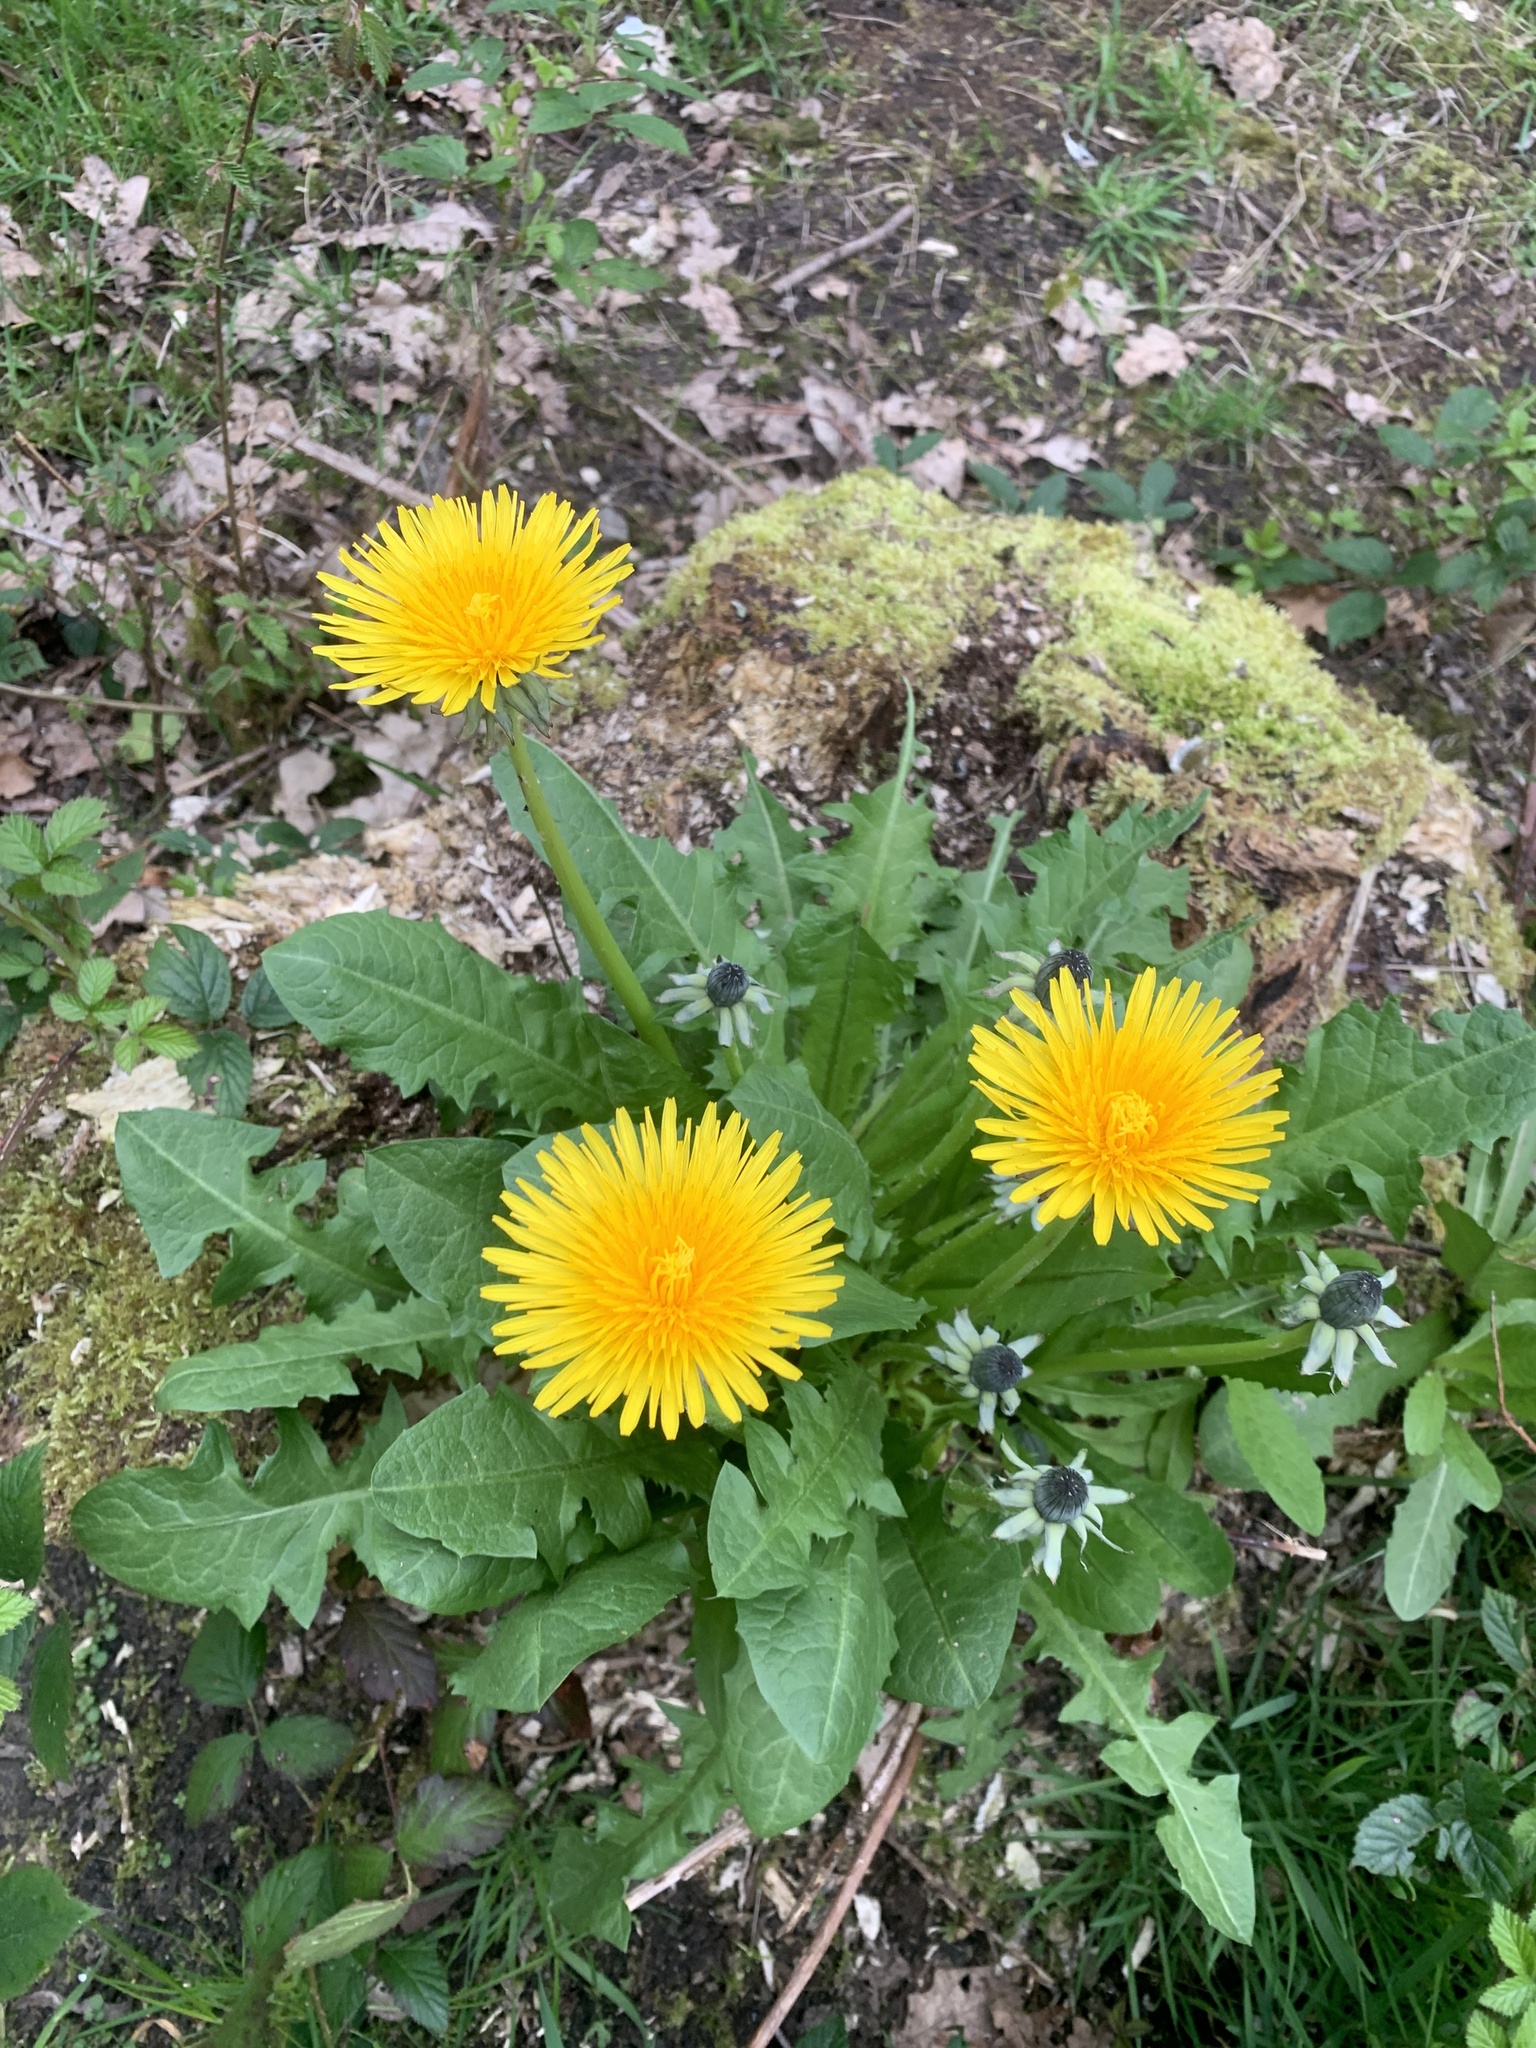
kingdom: Plantae
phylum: Tracheophyta
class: Magnoliopsida
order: Asterales
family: Asteraceae
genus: Taraxacum
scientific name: Taraxacum officinale
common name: Common dandelion
